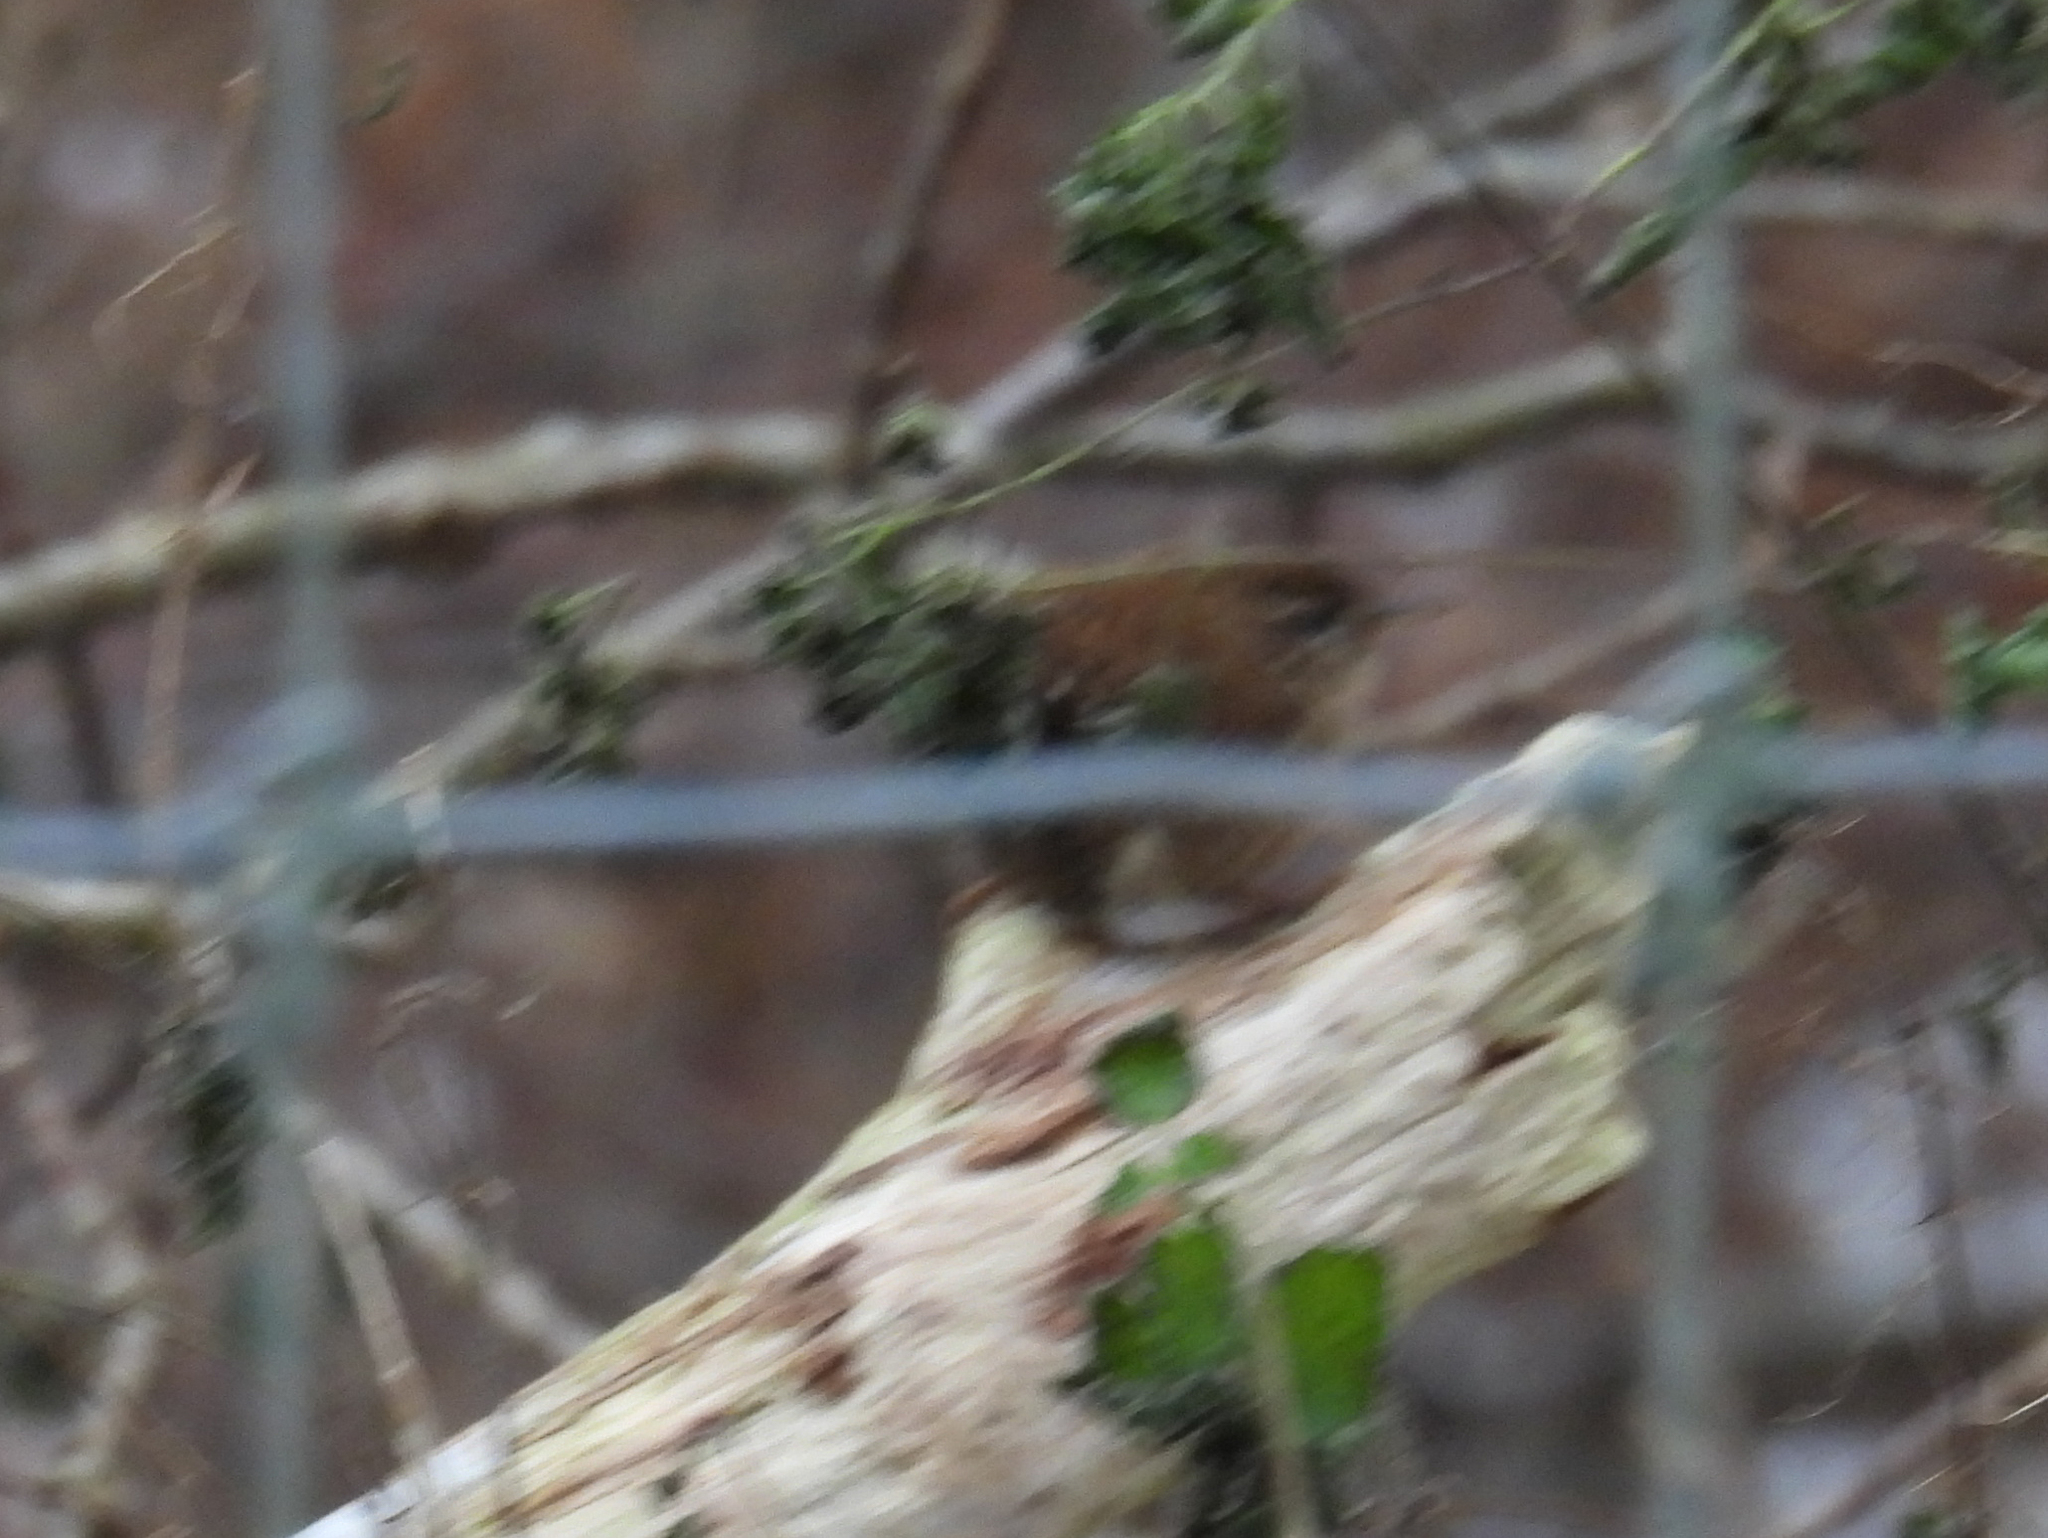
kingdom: Animalia
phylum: Chordata
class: Aves
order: Passeriformes
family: Troglodytidae
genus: Troglodytes
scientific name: Troglodytes troglodytes
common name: Eurasian wren
